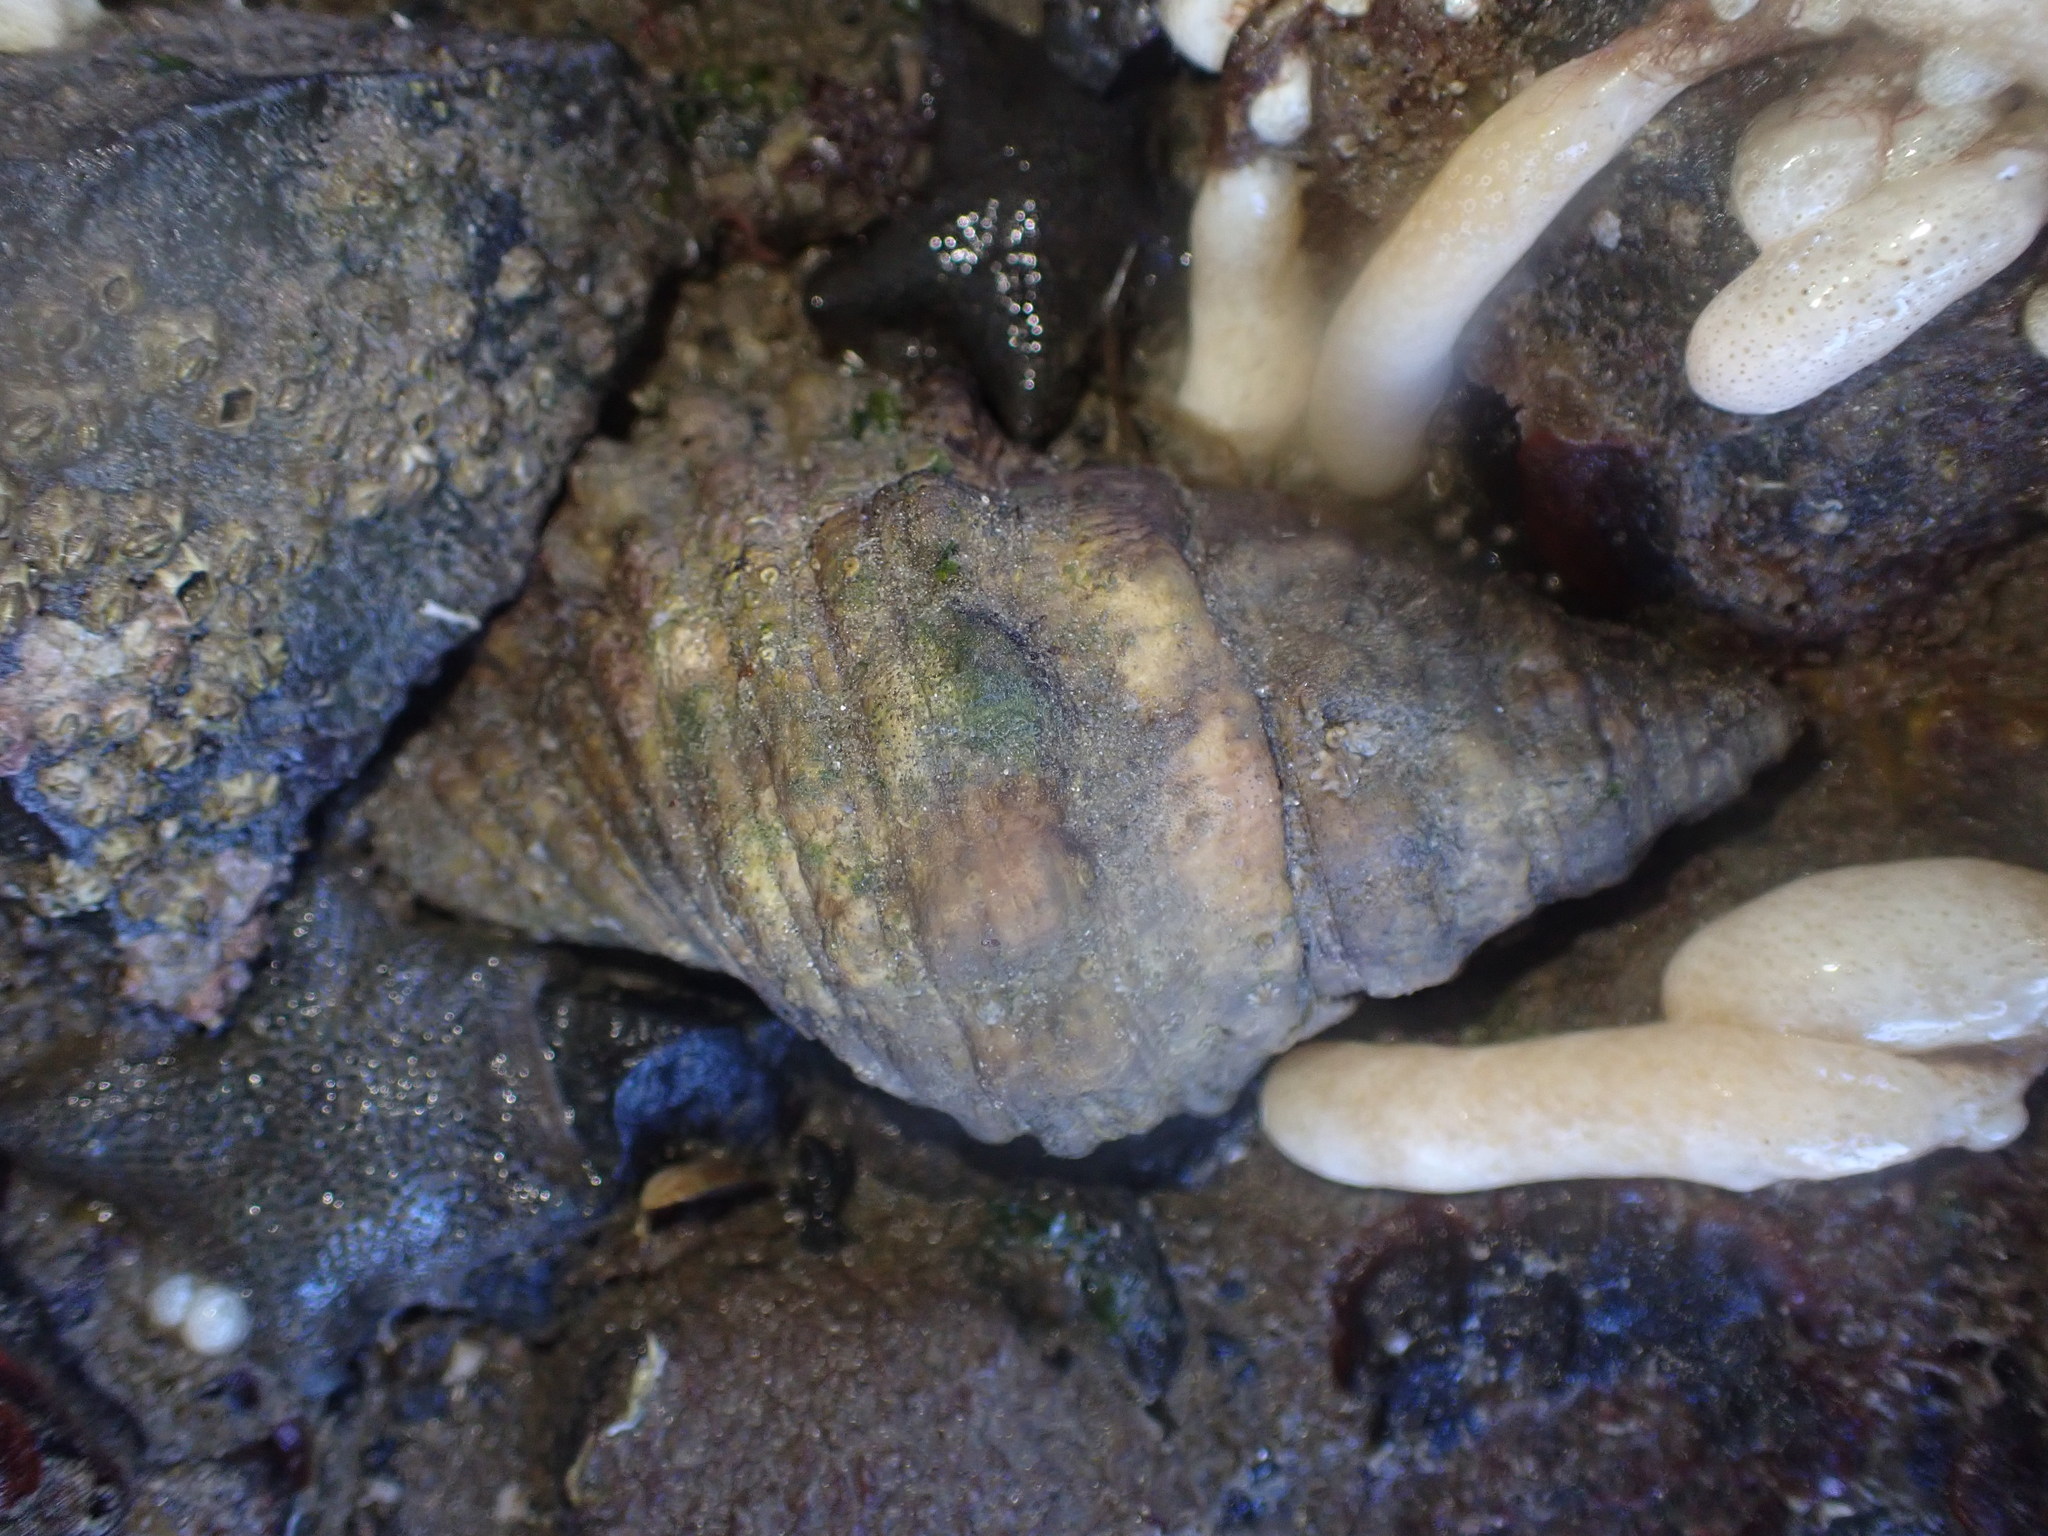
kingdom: Animalia
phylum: Mollusca
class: Gastropoda
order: Littorinimorpha
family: Cymatiidae
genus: Cabestana
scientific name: Cabestana spengleri
